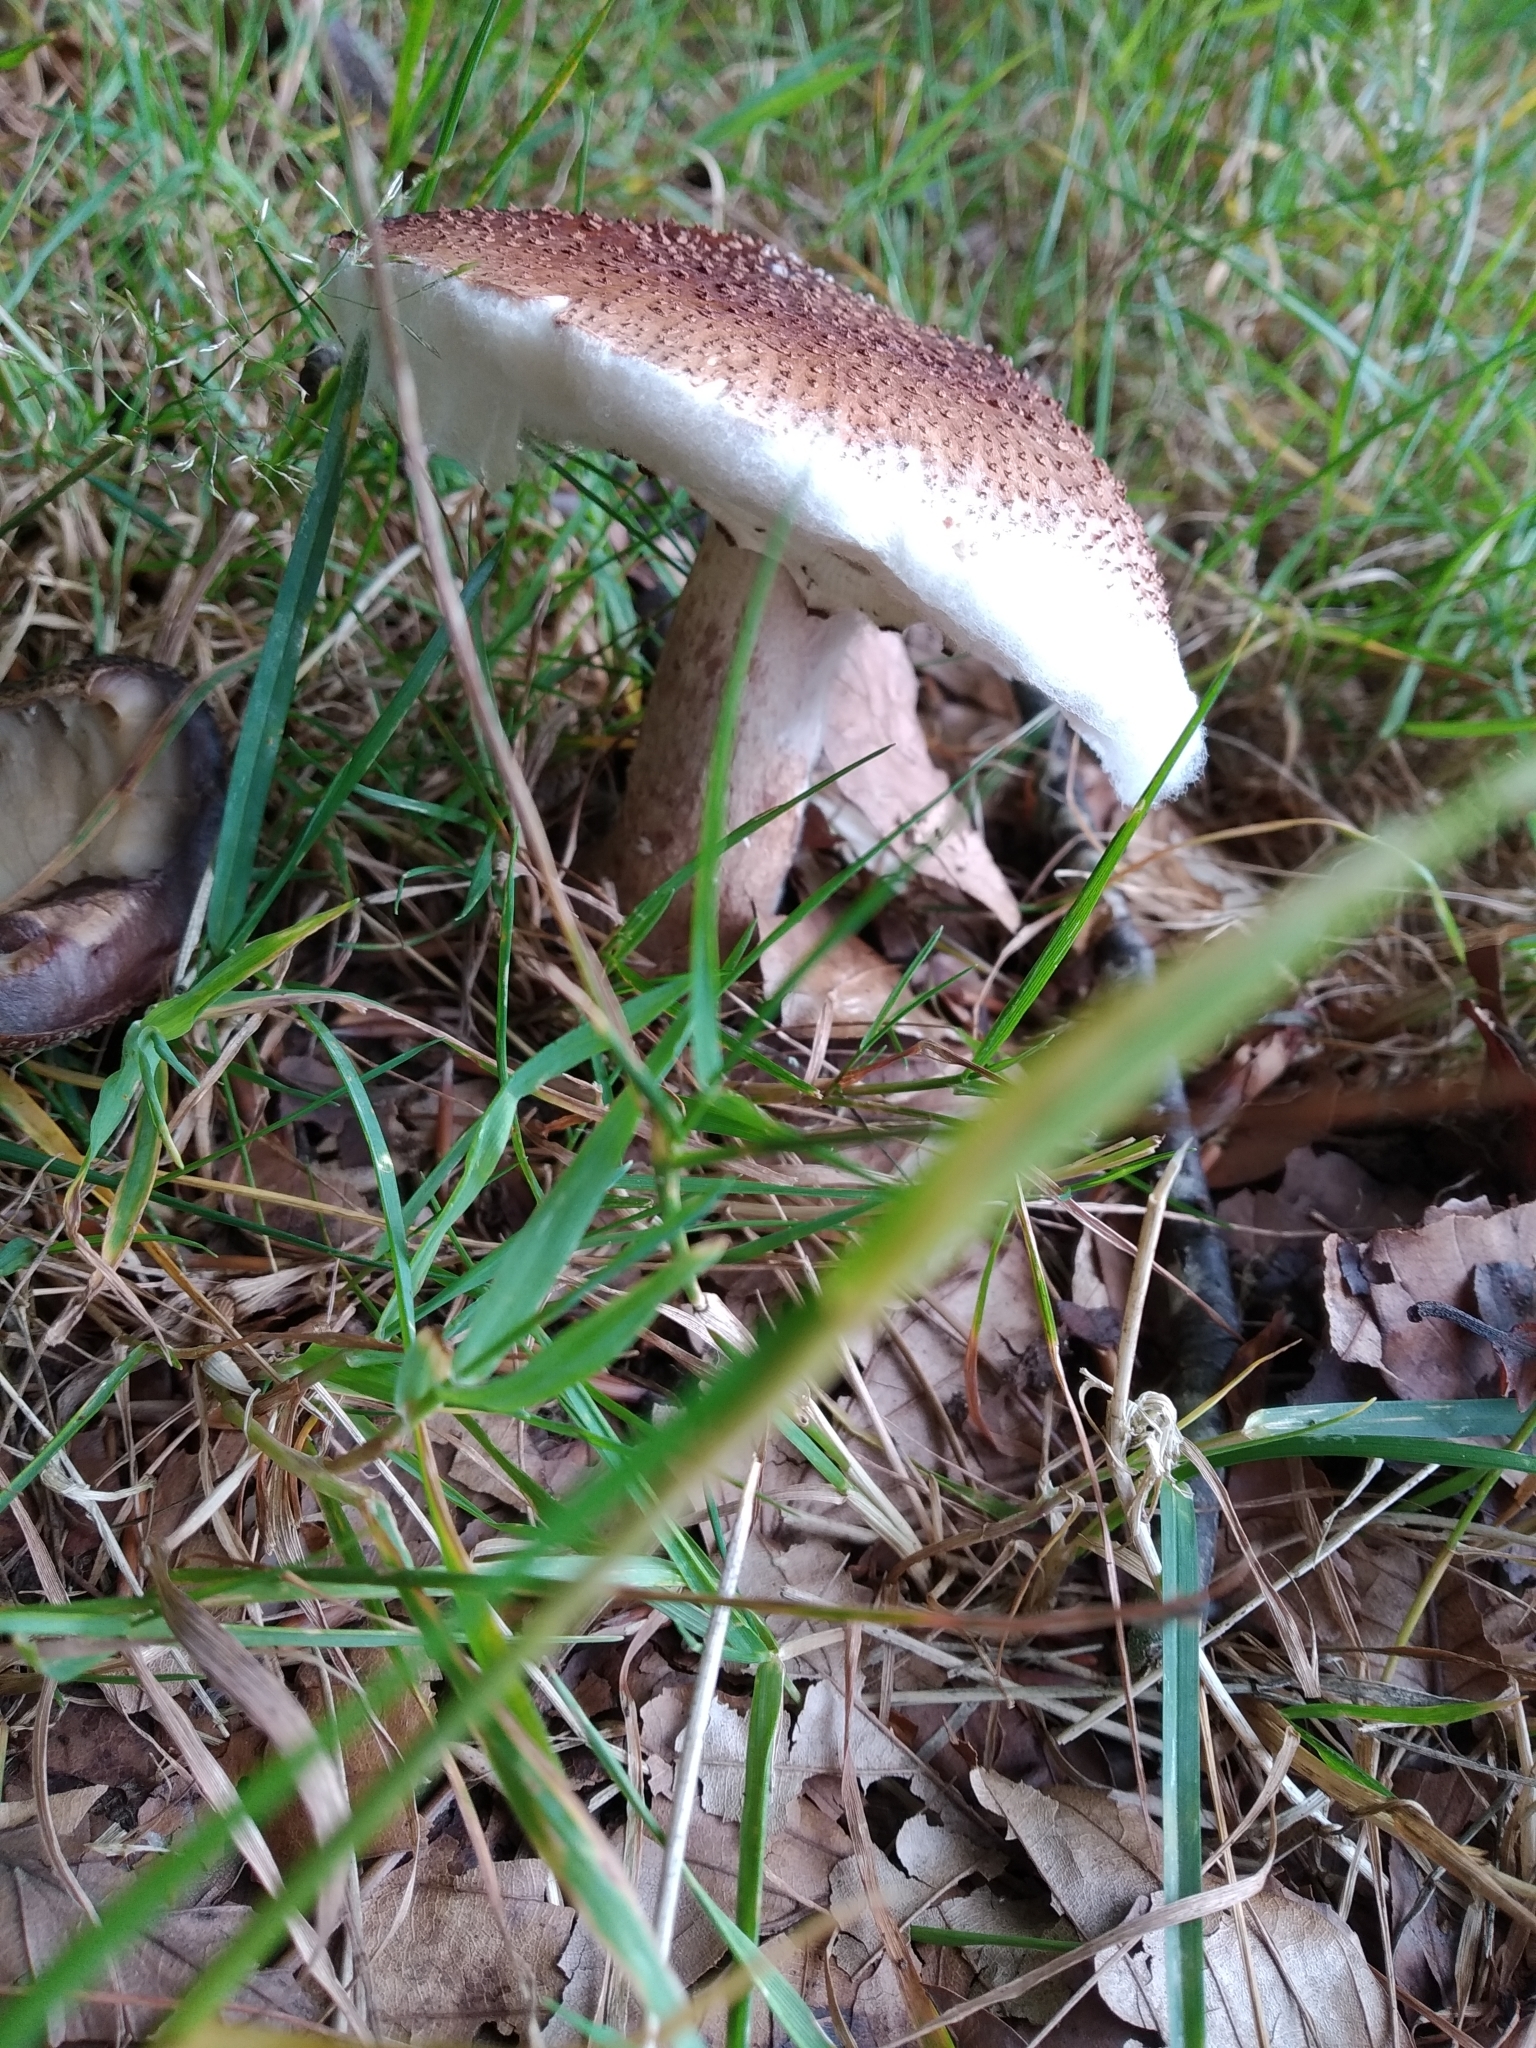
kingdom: Fungi
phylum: Basidiomycota
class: Agaricomycetes
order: Agaricales
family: Amanitaceae
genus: Amanita
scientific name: Amanita rubescens
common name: Blusher
